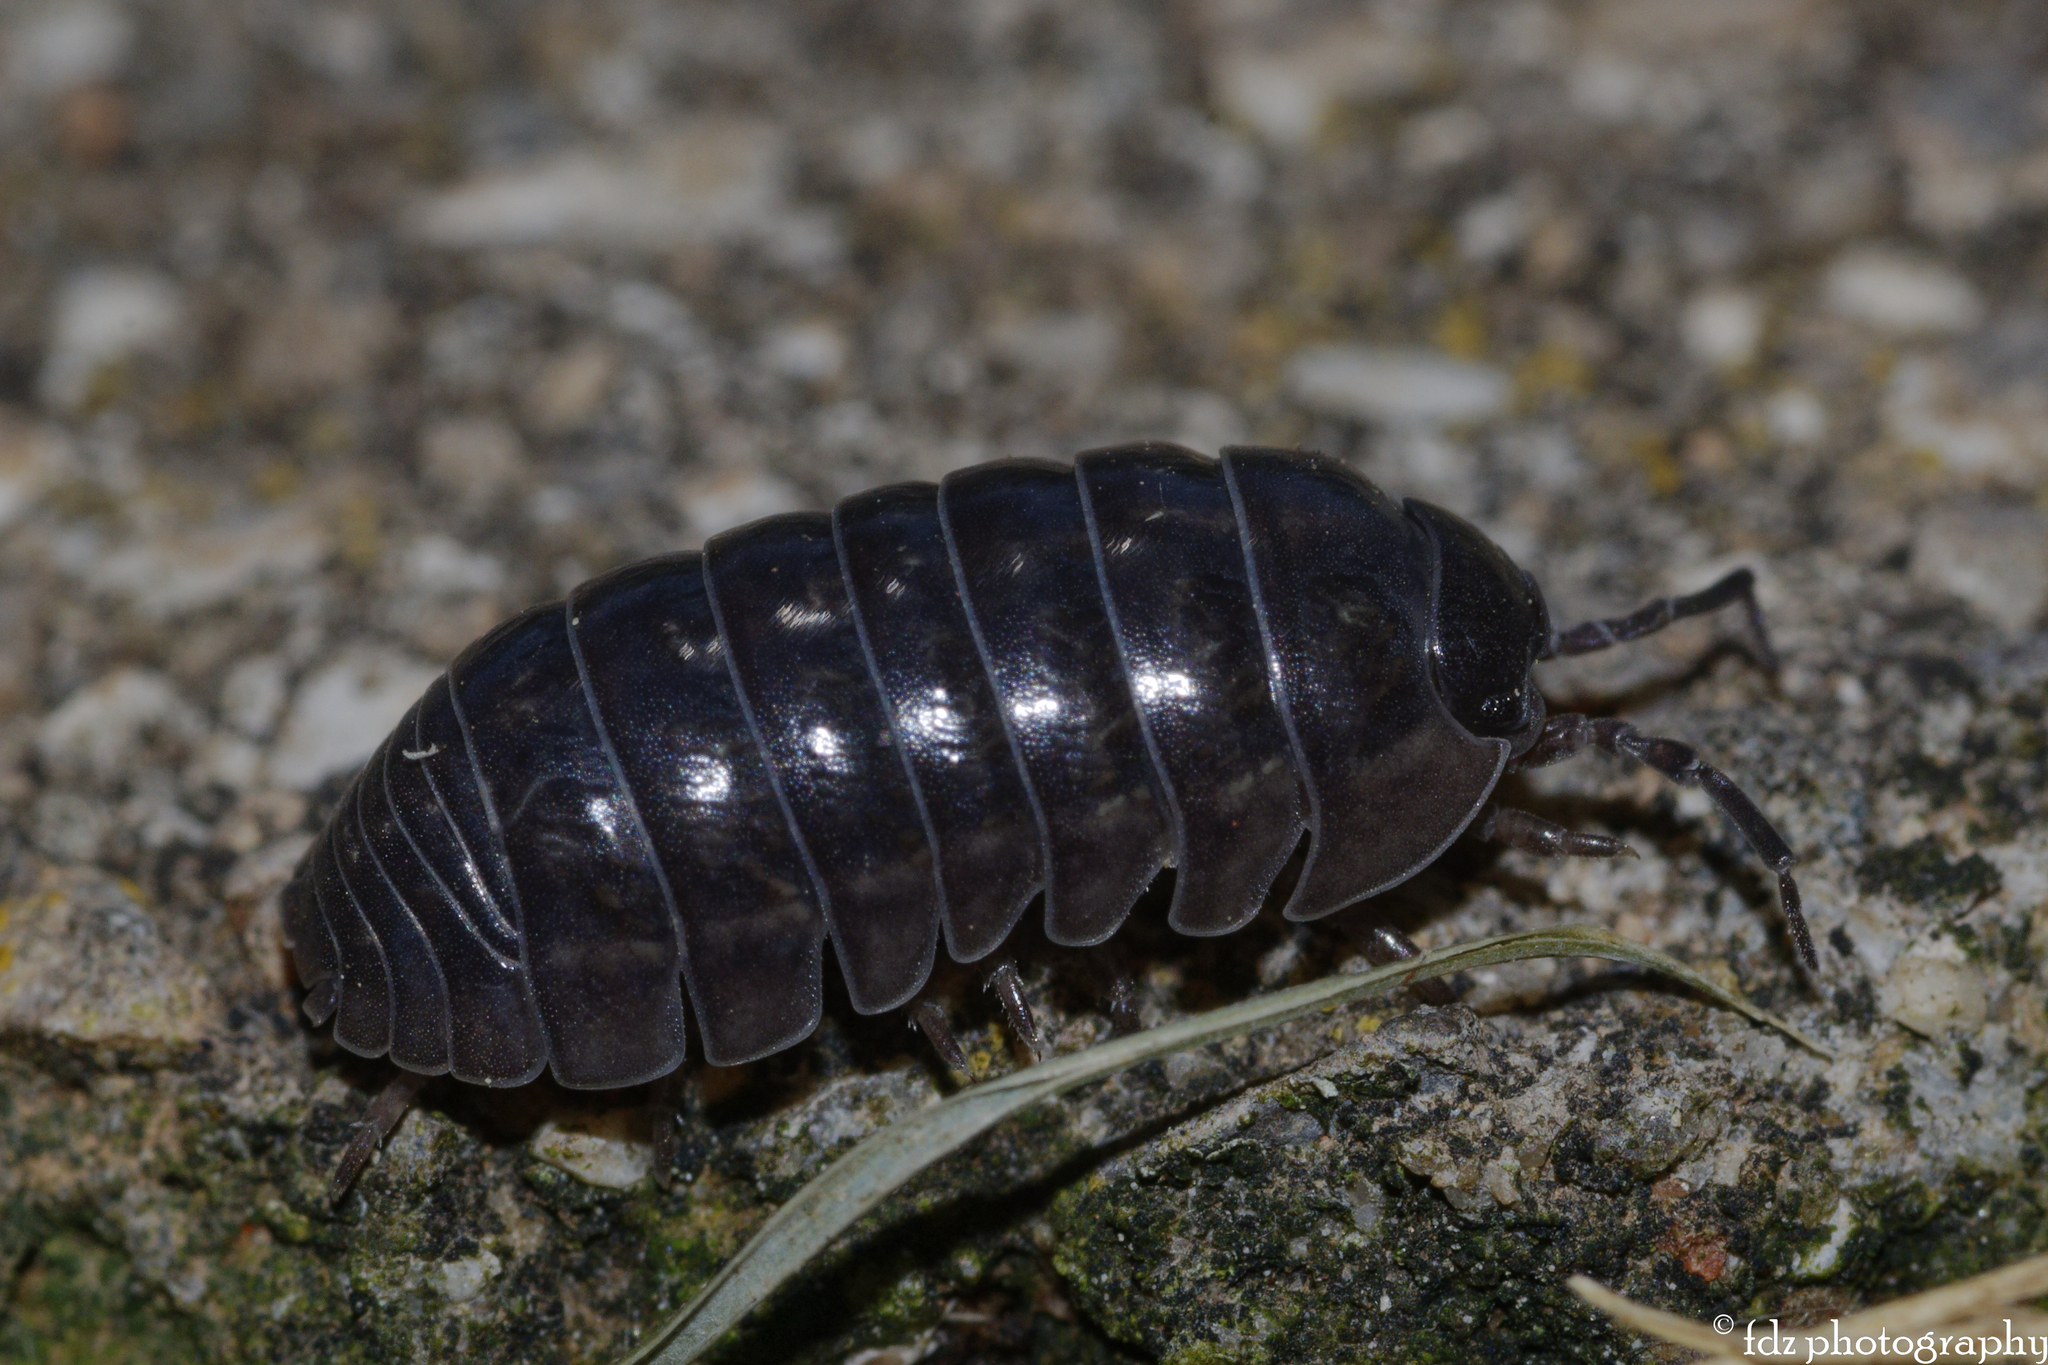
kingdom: Animalia
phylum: Arthropoda
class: Malacostraca
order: Isopoda
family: Armadillidiidae
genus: Armadillidium
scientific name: Armadillidium vulgare
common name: Common pill woodlouse
